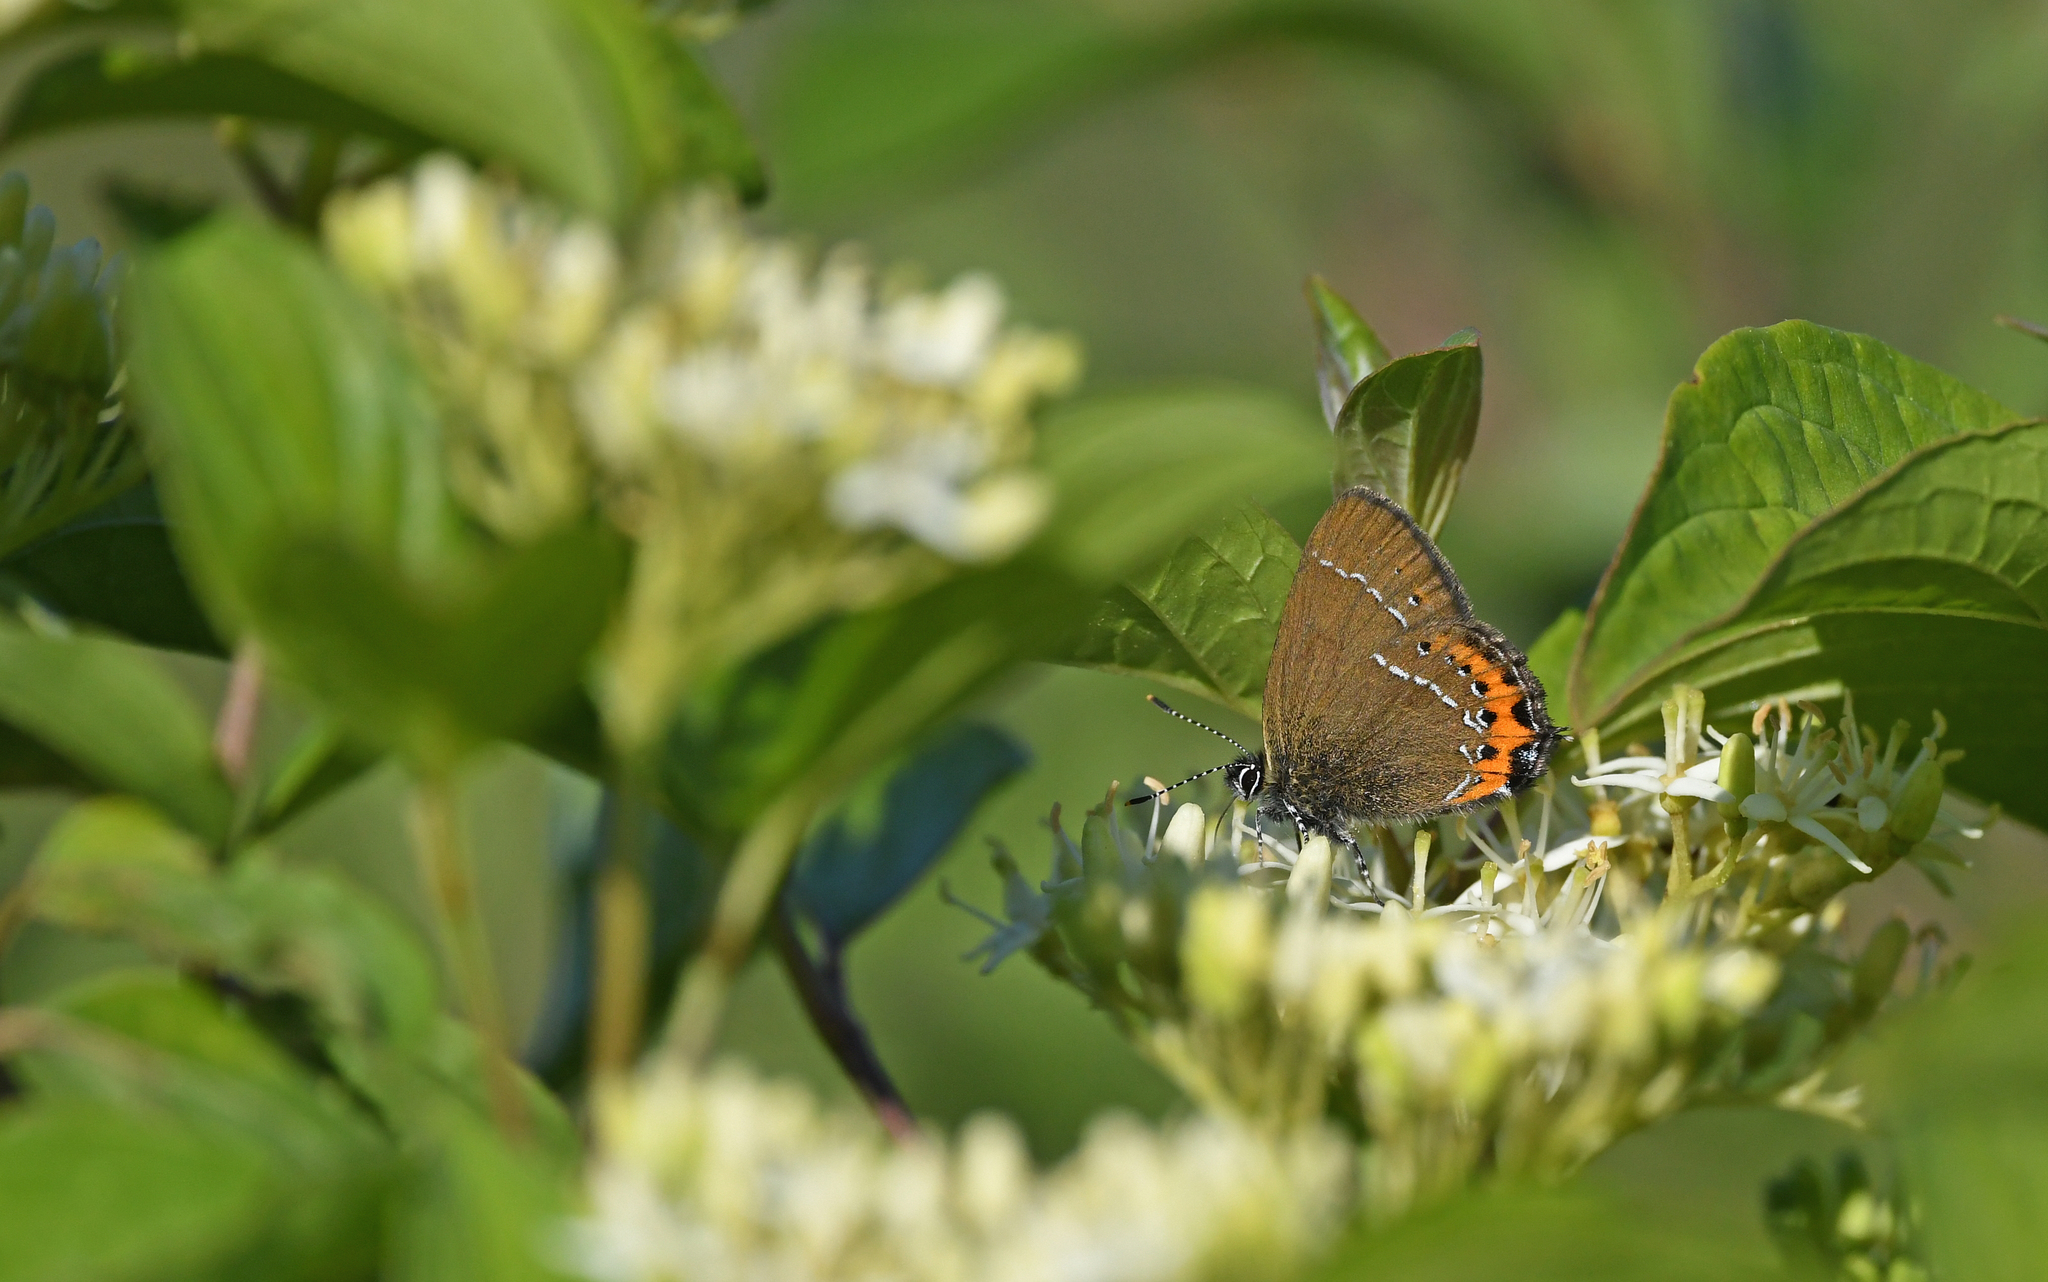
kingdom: Animalia
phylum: Arthropoda
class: Insecta
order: Lepidoptera
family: Lycaenidae
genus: Fixsenia
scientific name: Fixsenia pruni
